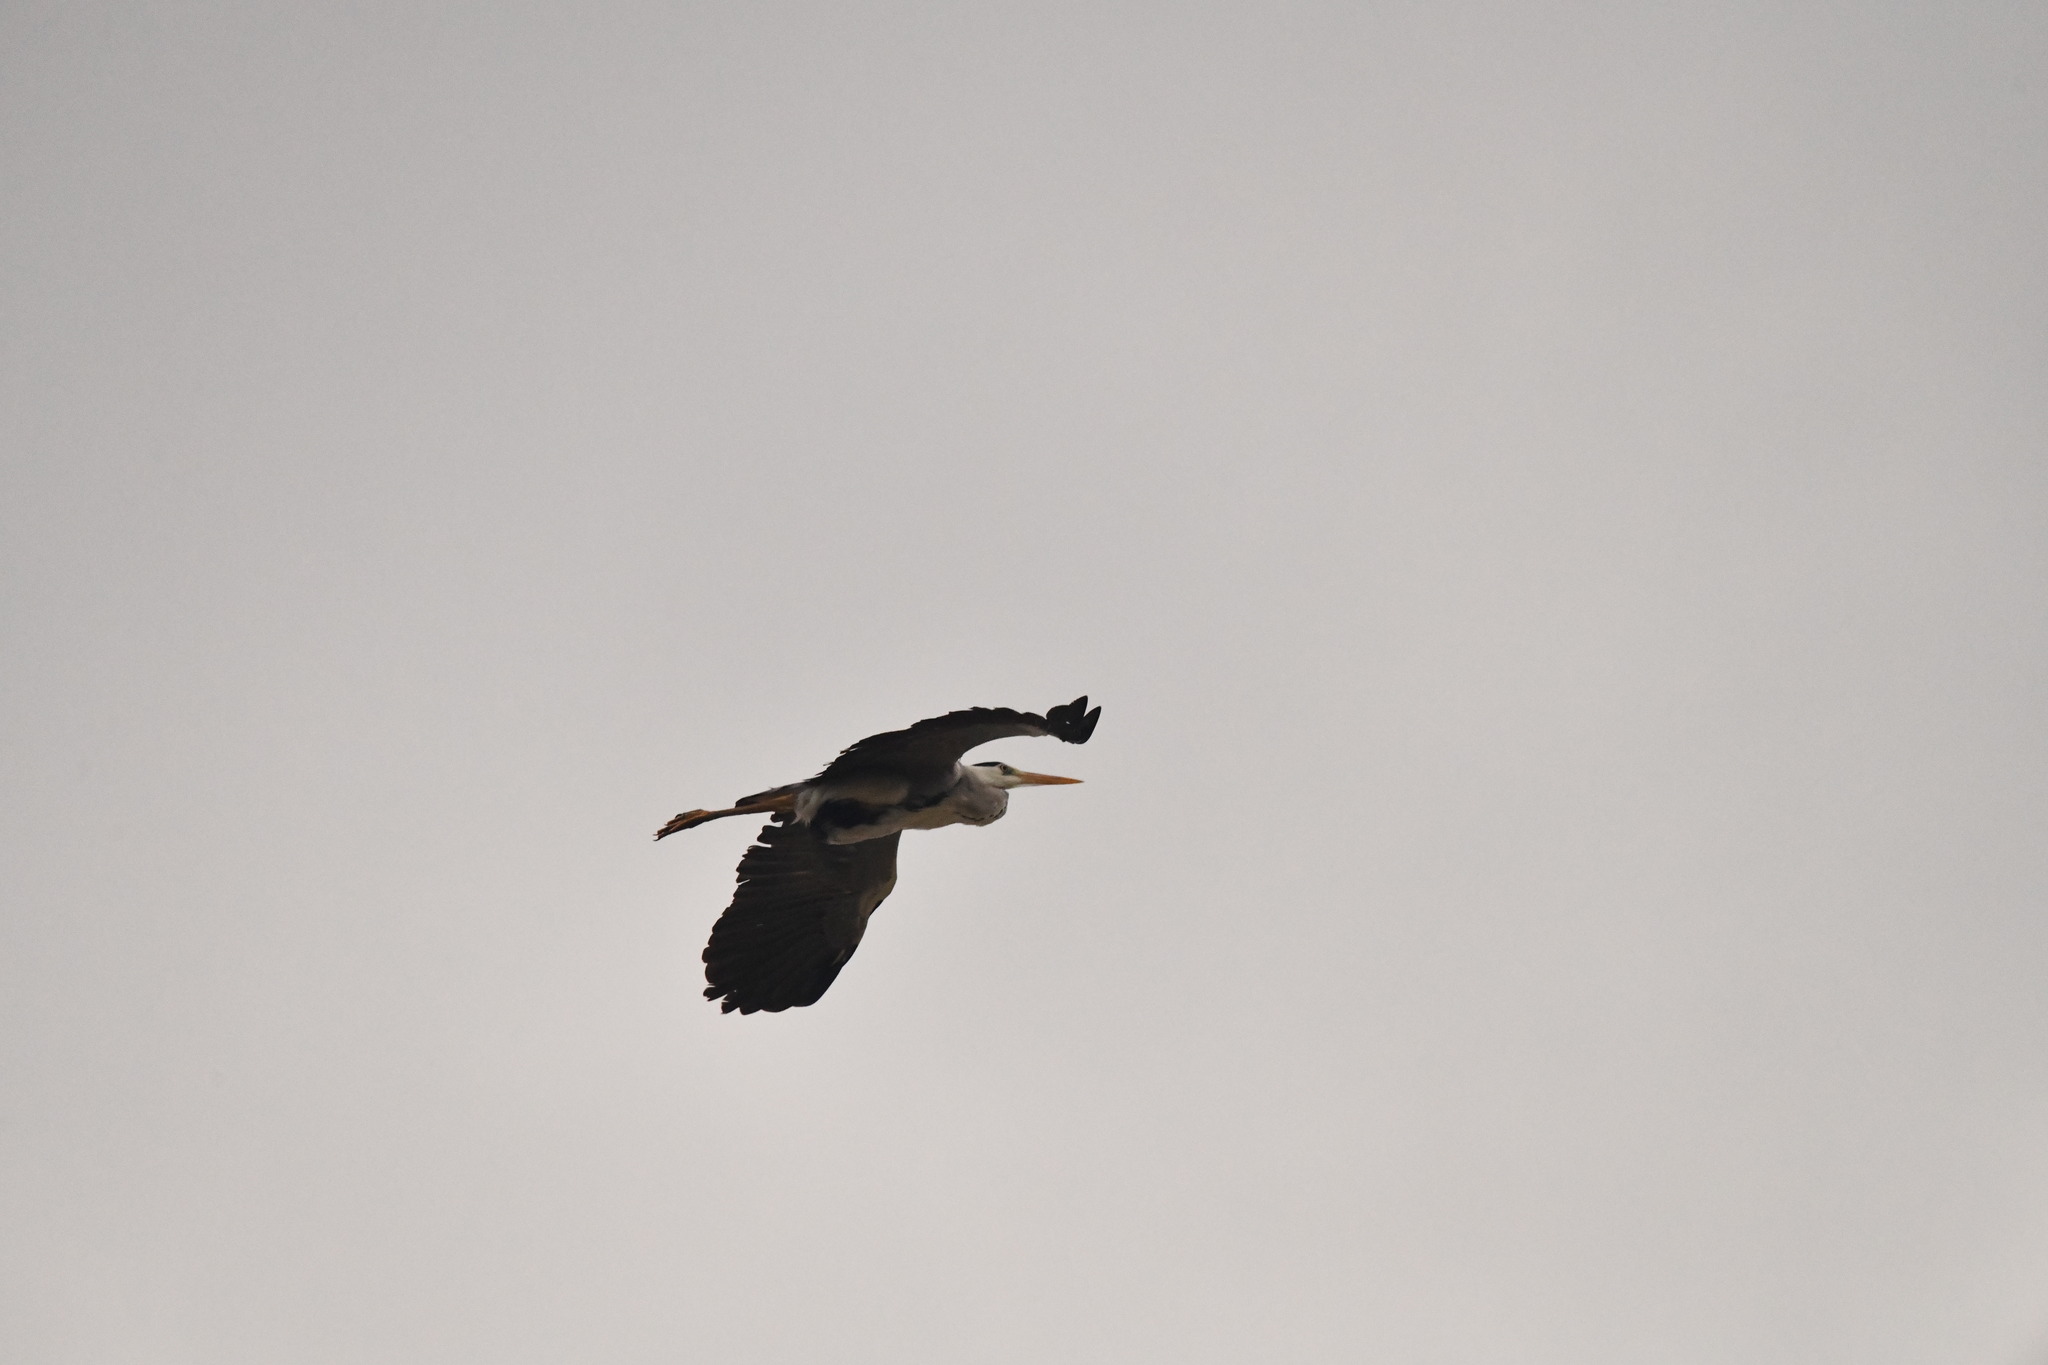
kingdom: Animalia
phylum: Chordata
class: Aves
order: Pelecaniformes
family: Ardeidae
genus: Ardea
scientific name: Ardea cinerea
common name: Grey heron
